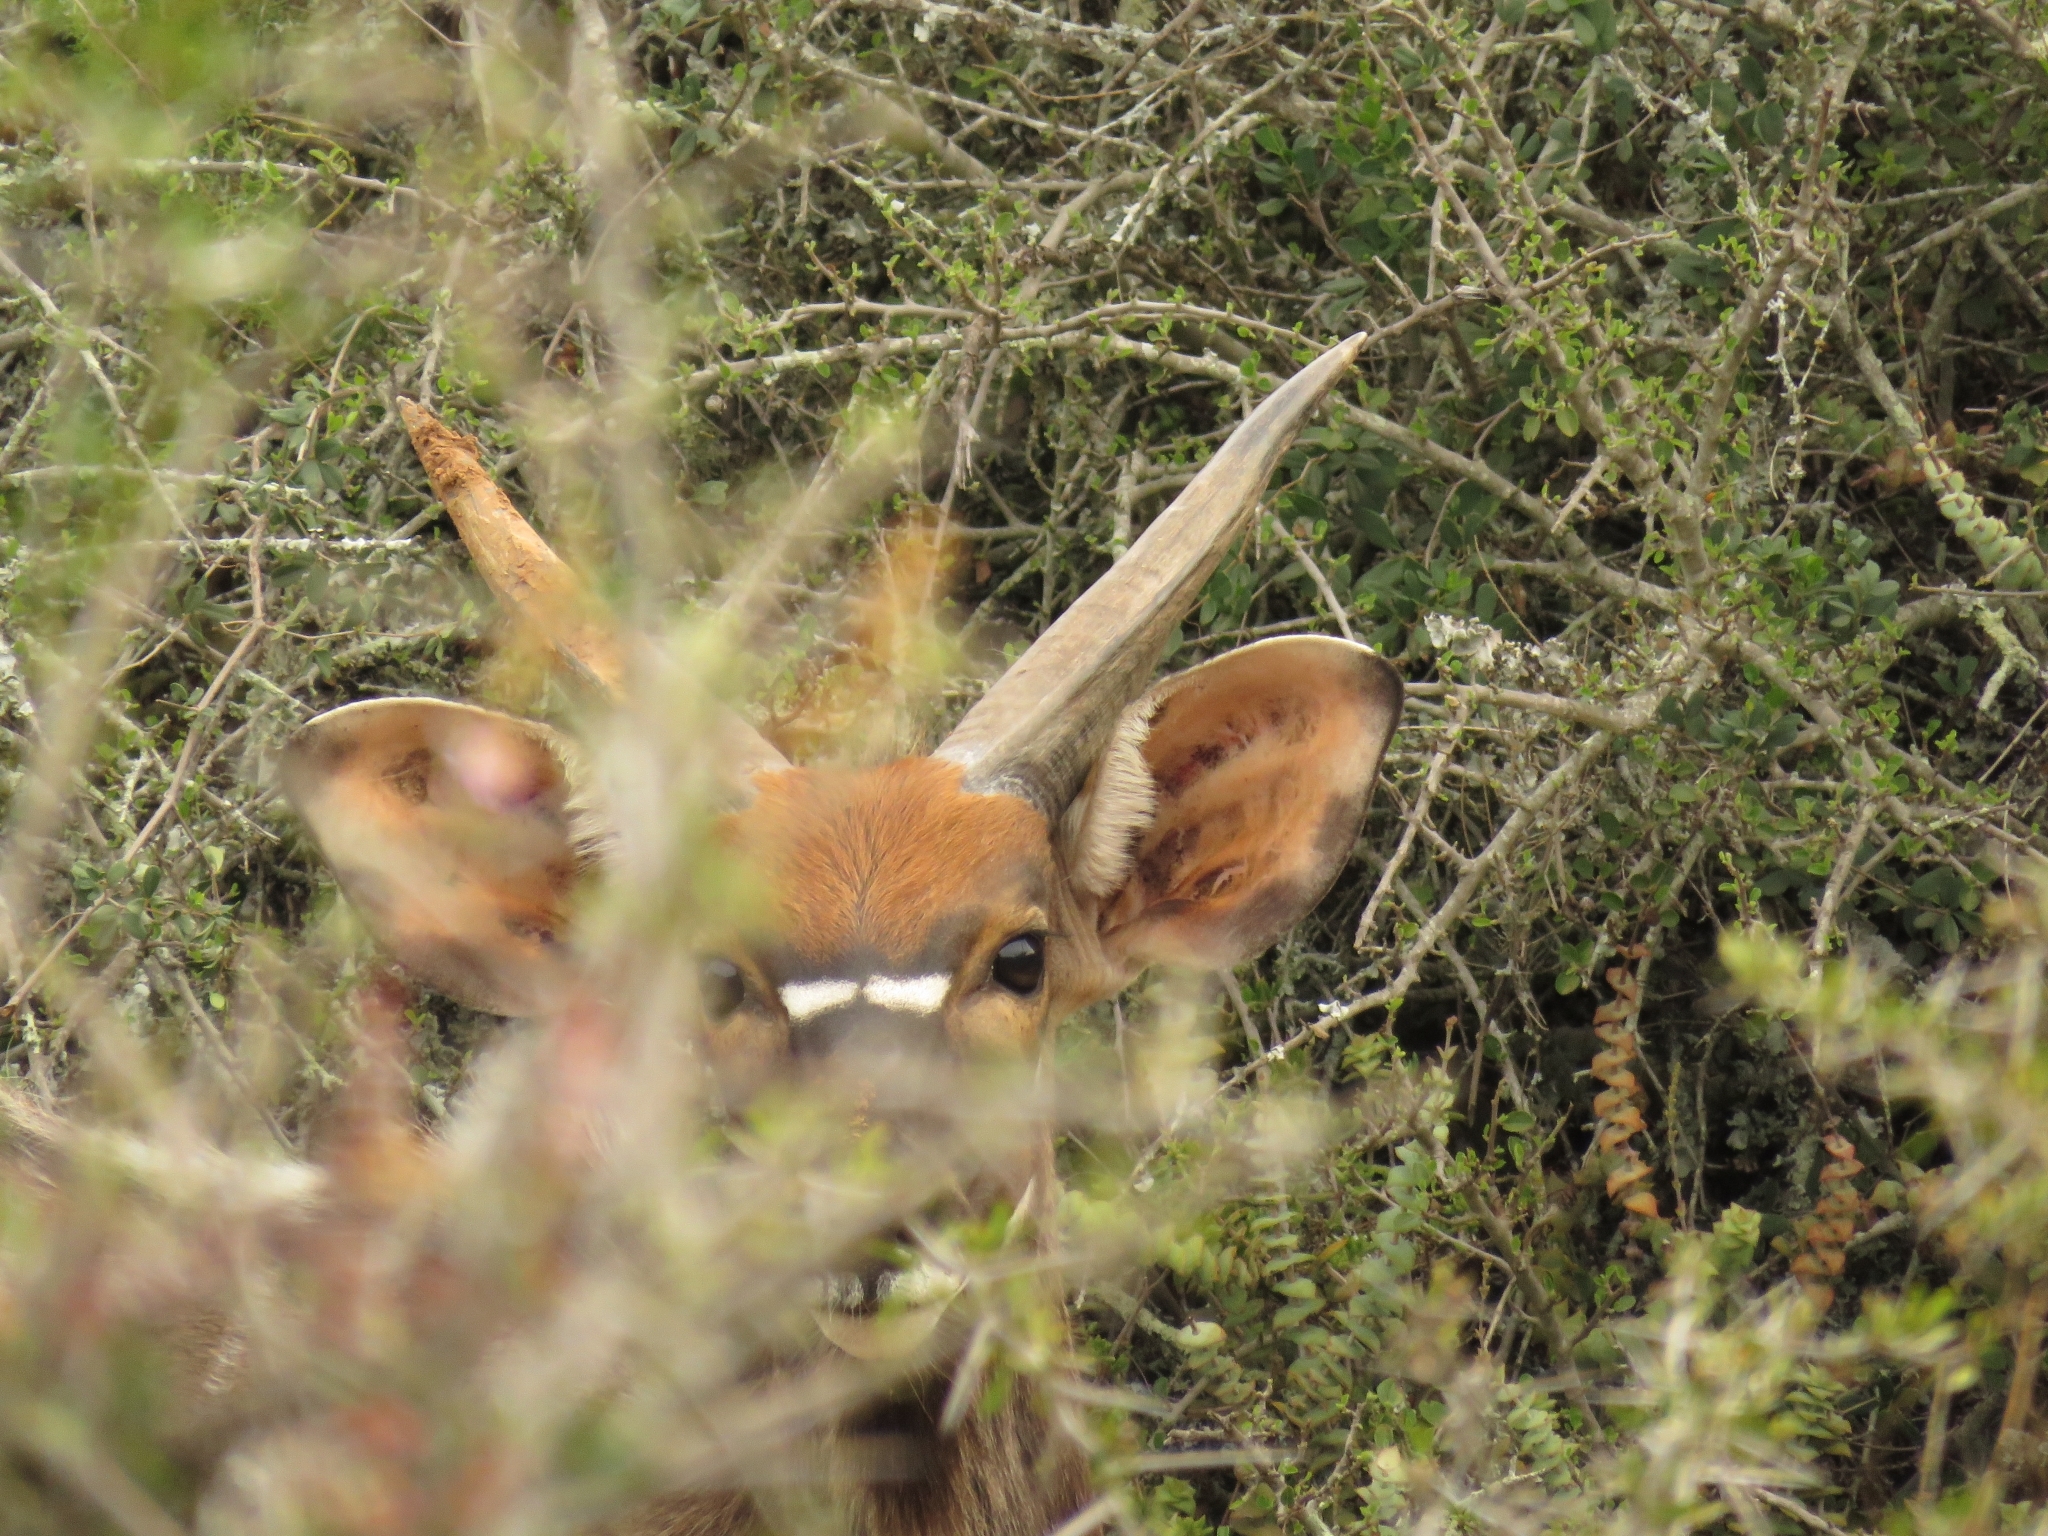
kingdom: Animalia
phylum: Chordata
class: Mammalia
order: Artiodactyla
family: Bovidae
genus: Tragelaphus
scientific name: Tragelaphus angasii
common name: Nyala
